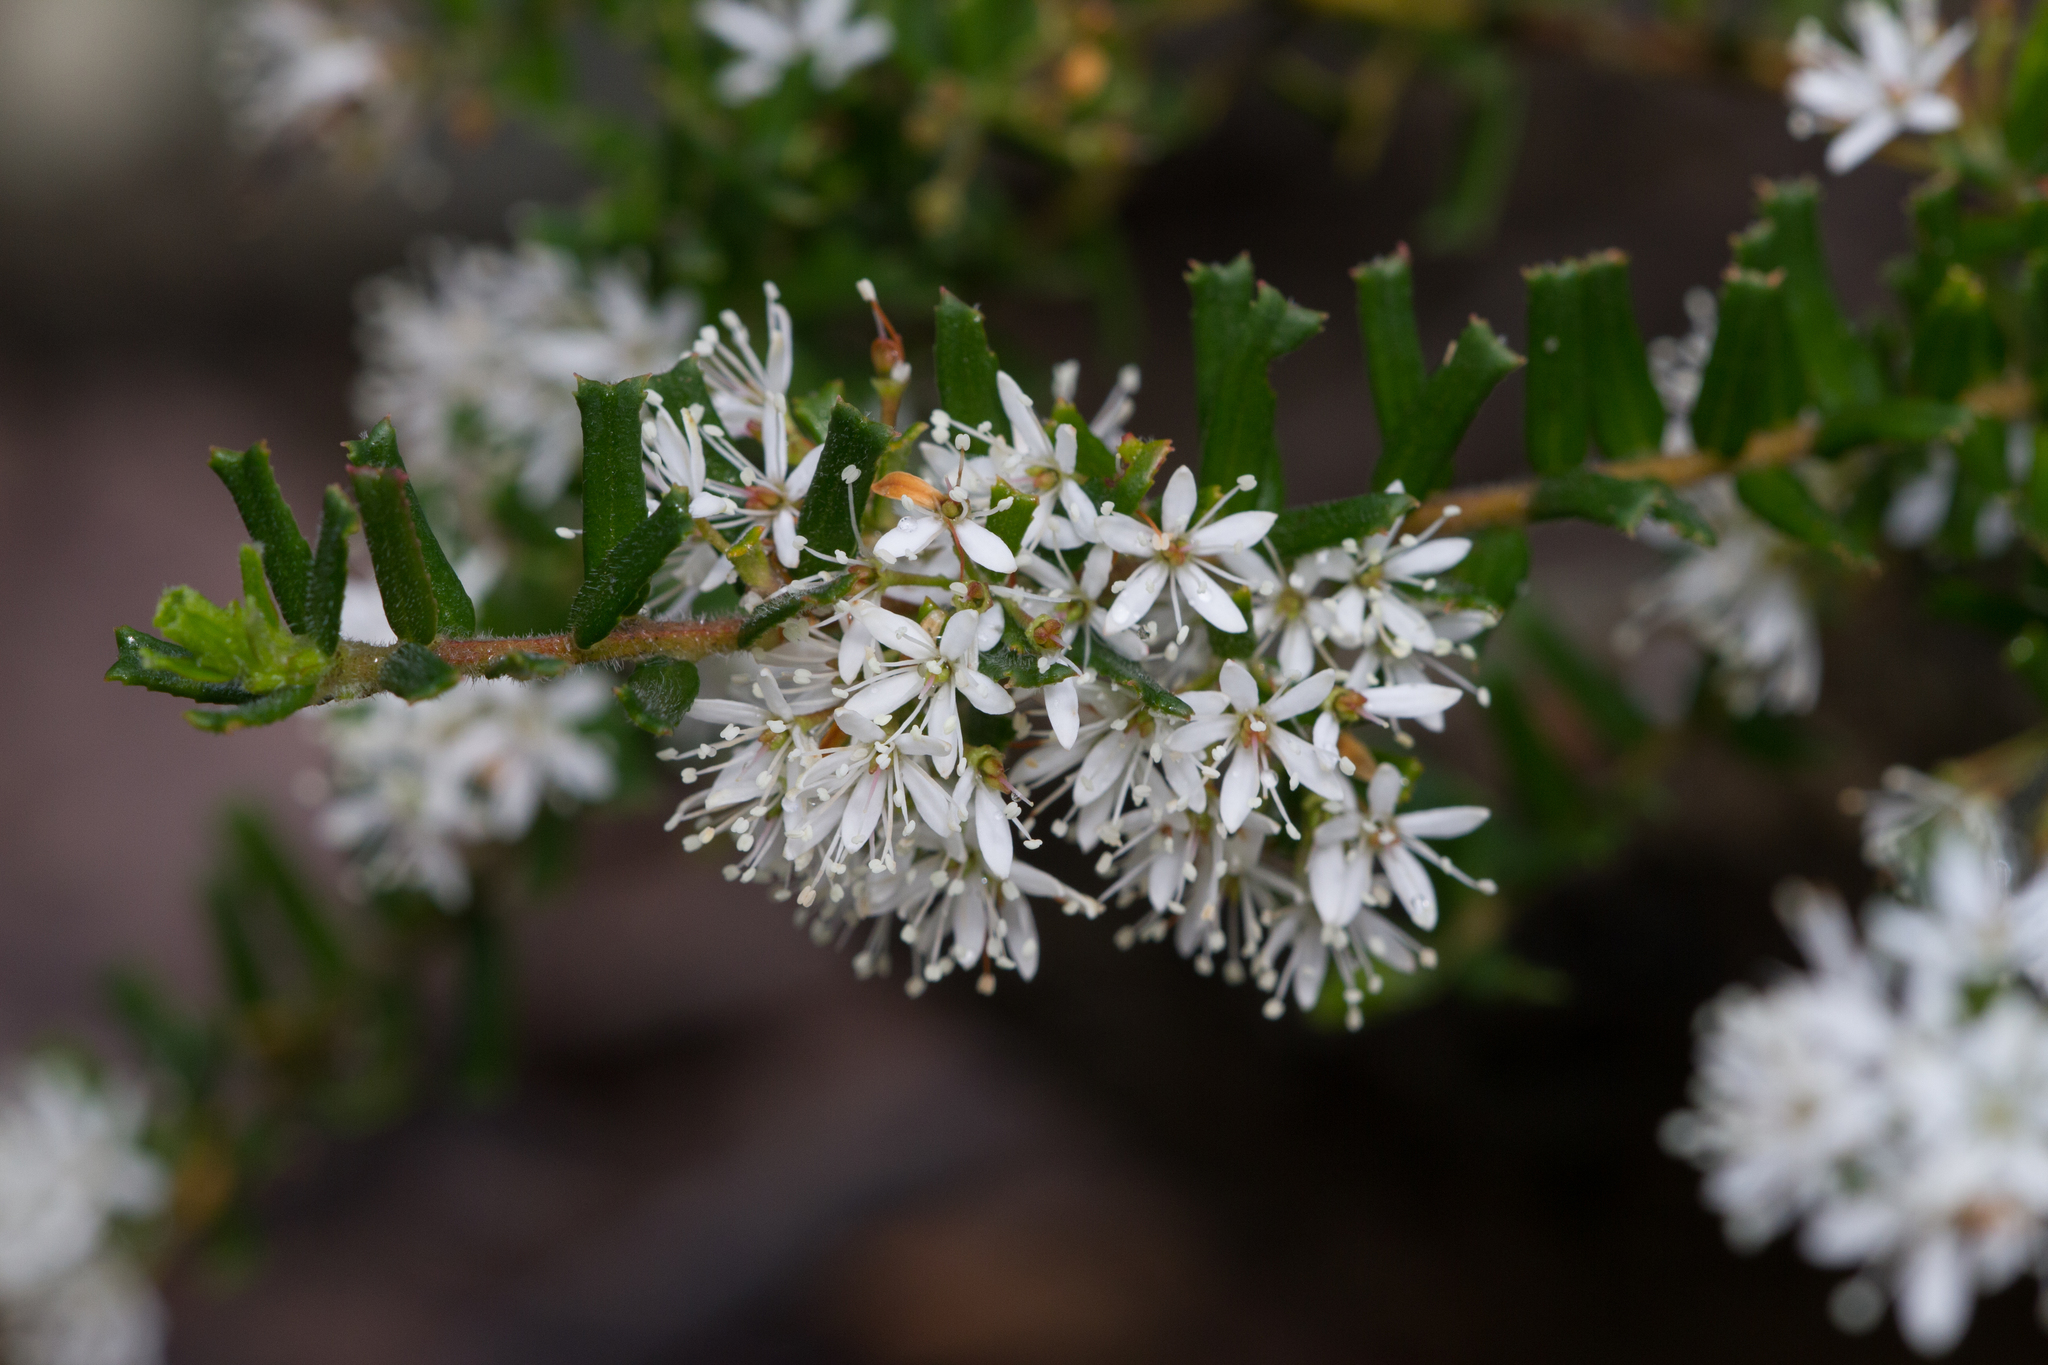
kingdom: Plantae
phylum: Tracheophyta
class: Magnoliopsida
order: Sapindales
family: Rutaceae
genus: Leionema
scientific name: Leionema bilobum
